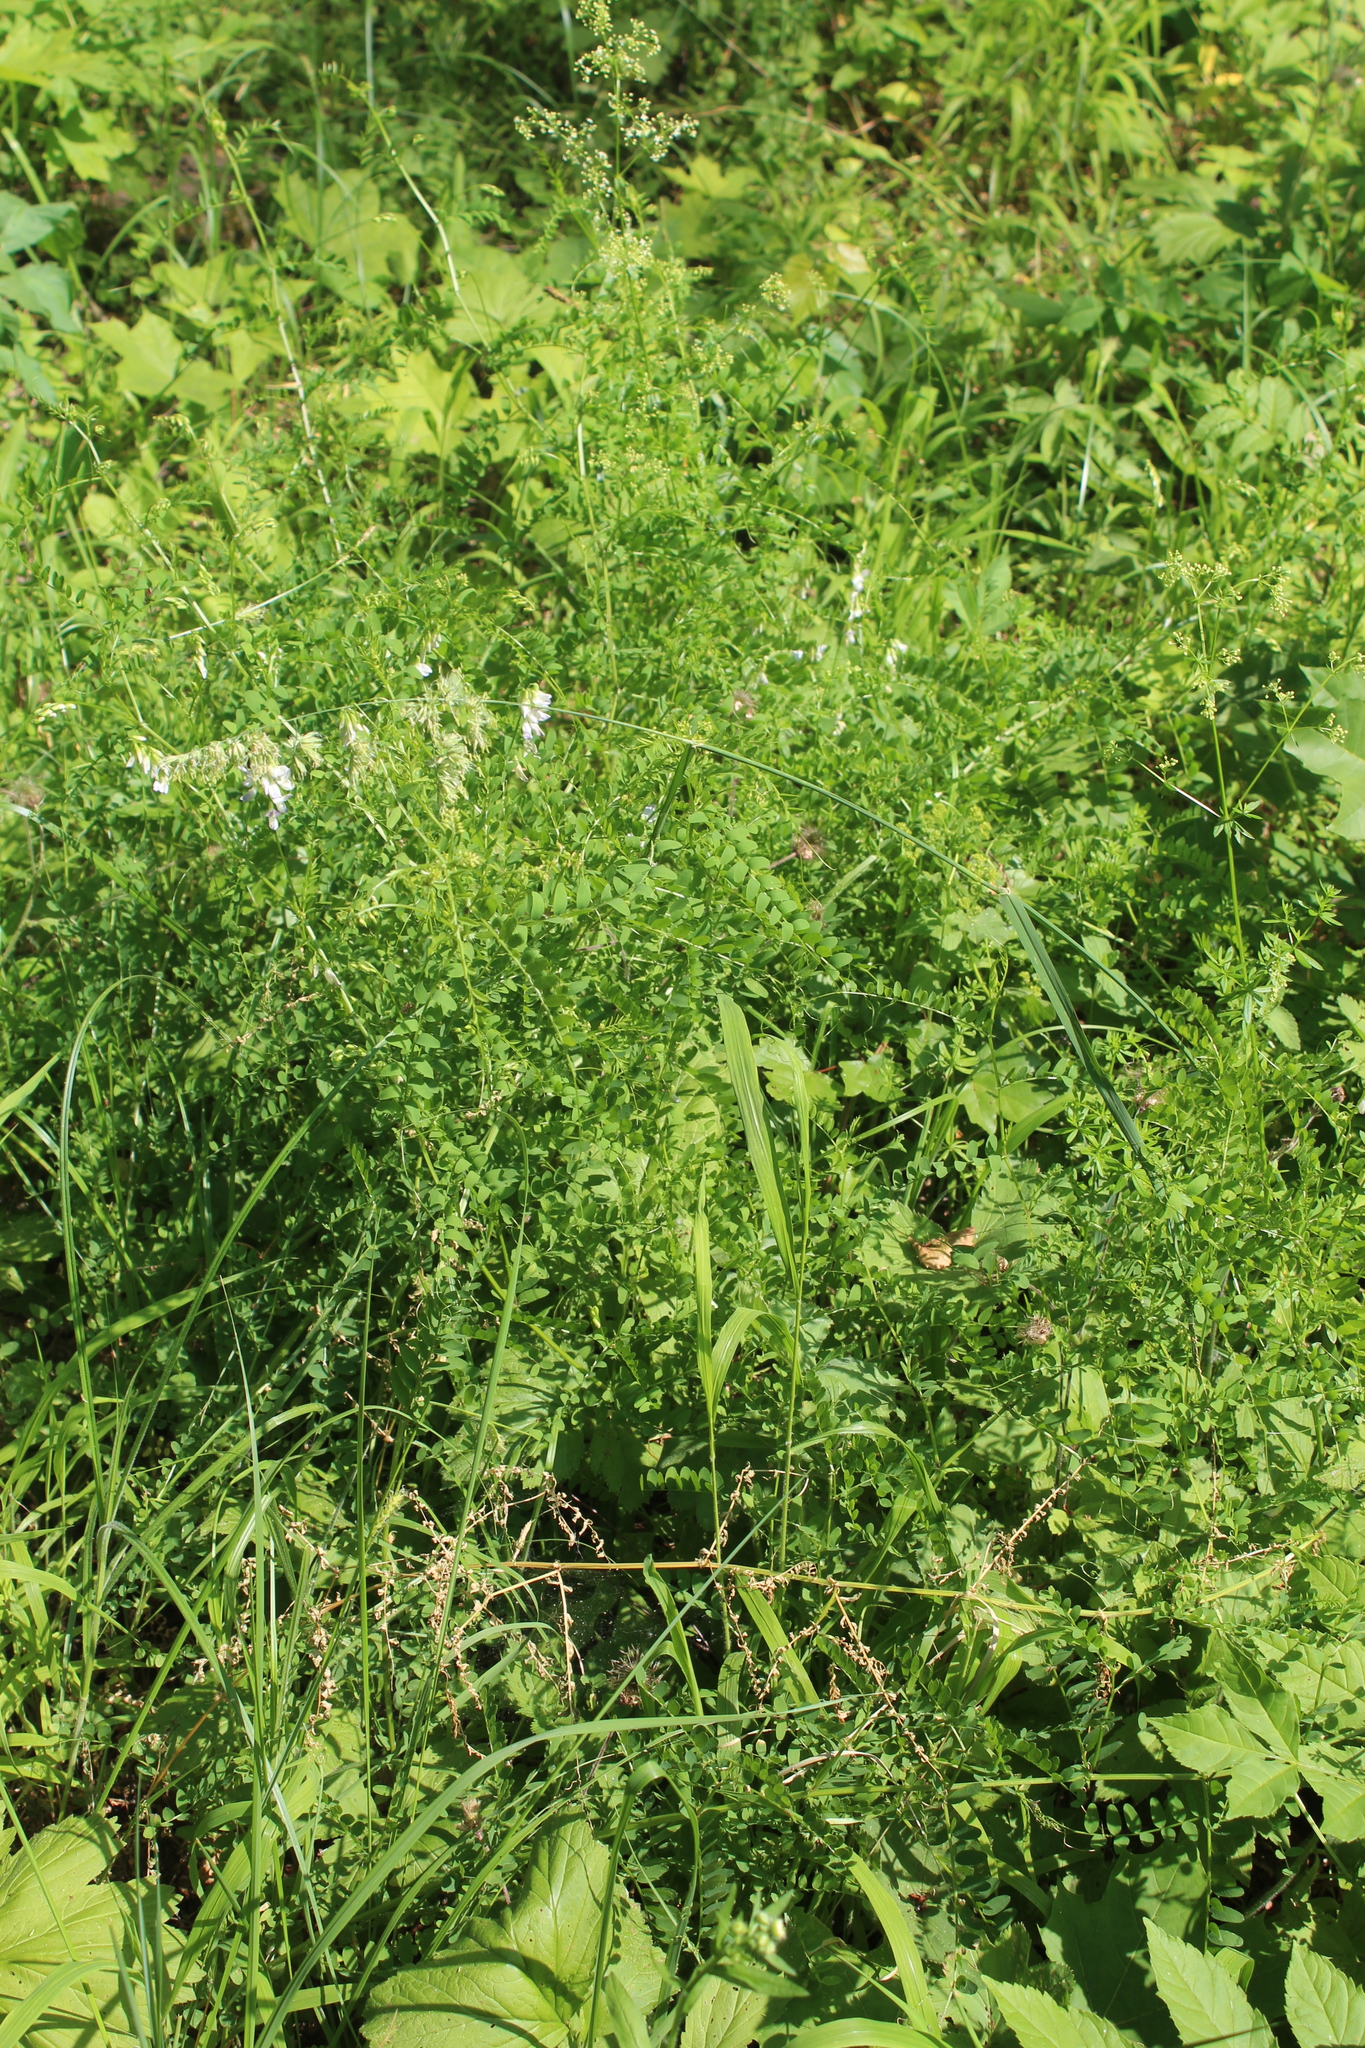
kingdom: Plantae
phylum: Tracheophyta
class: Magnoliopsida
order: Fabales
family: Fabaceae
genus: Vicia
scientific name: Vicia sylvatica
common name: Wood vetch
